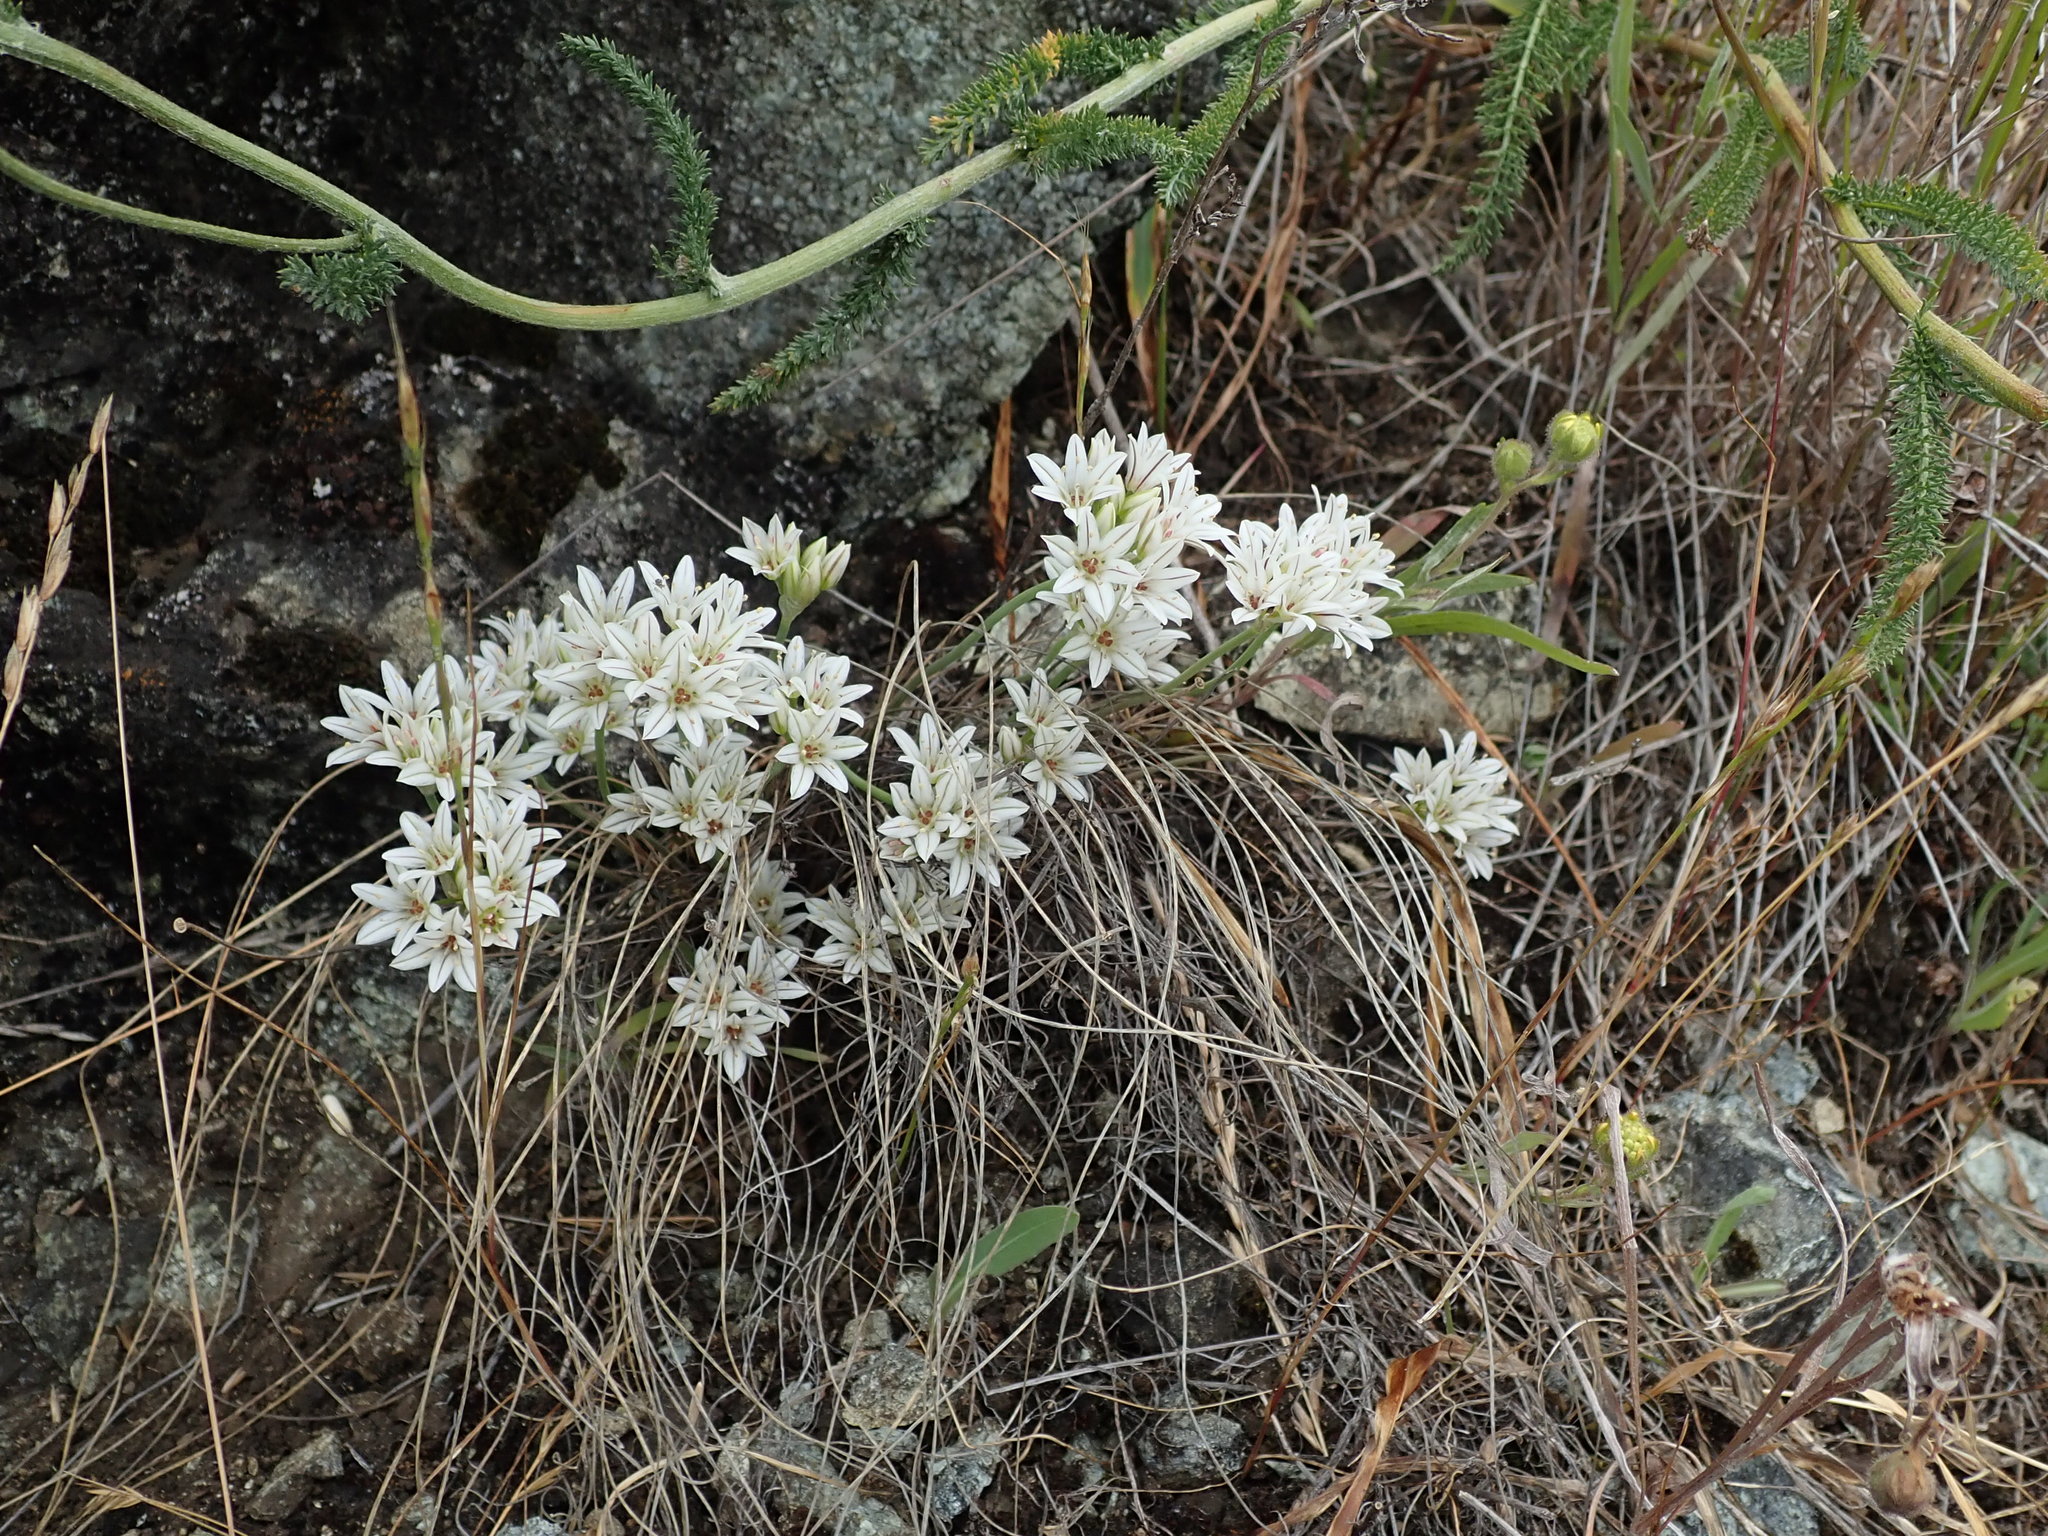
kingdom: Plantae
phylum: Tracheophyta
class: Liliopsida
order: Asparagales
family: Amaryllidaceae
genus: Allium
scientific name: Allium lacunosum
